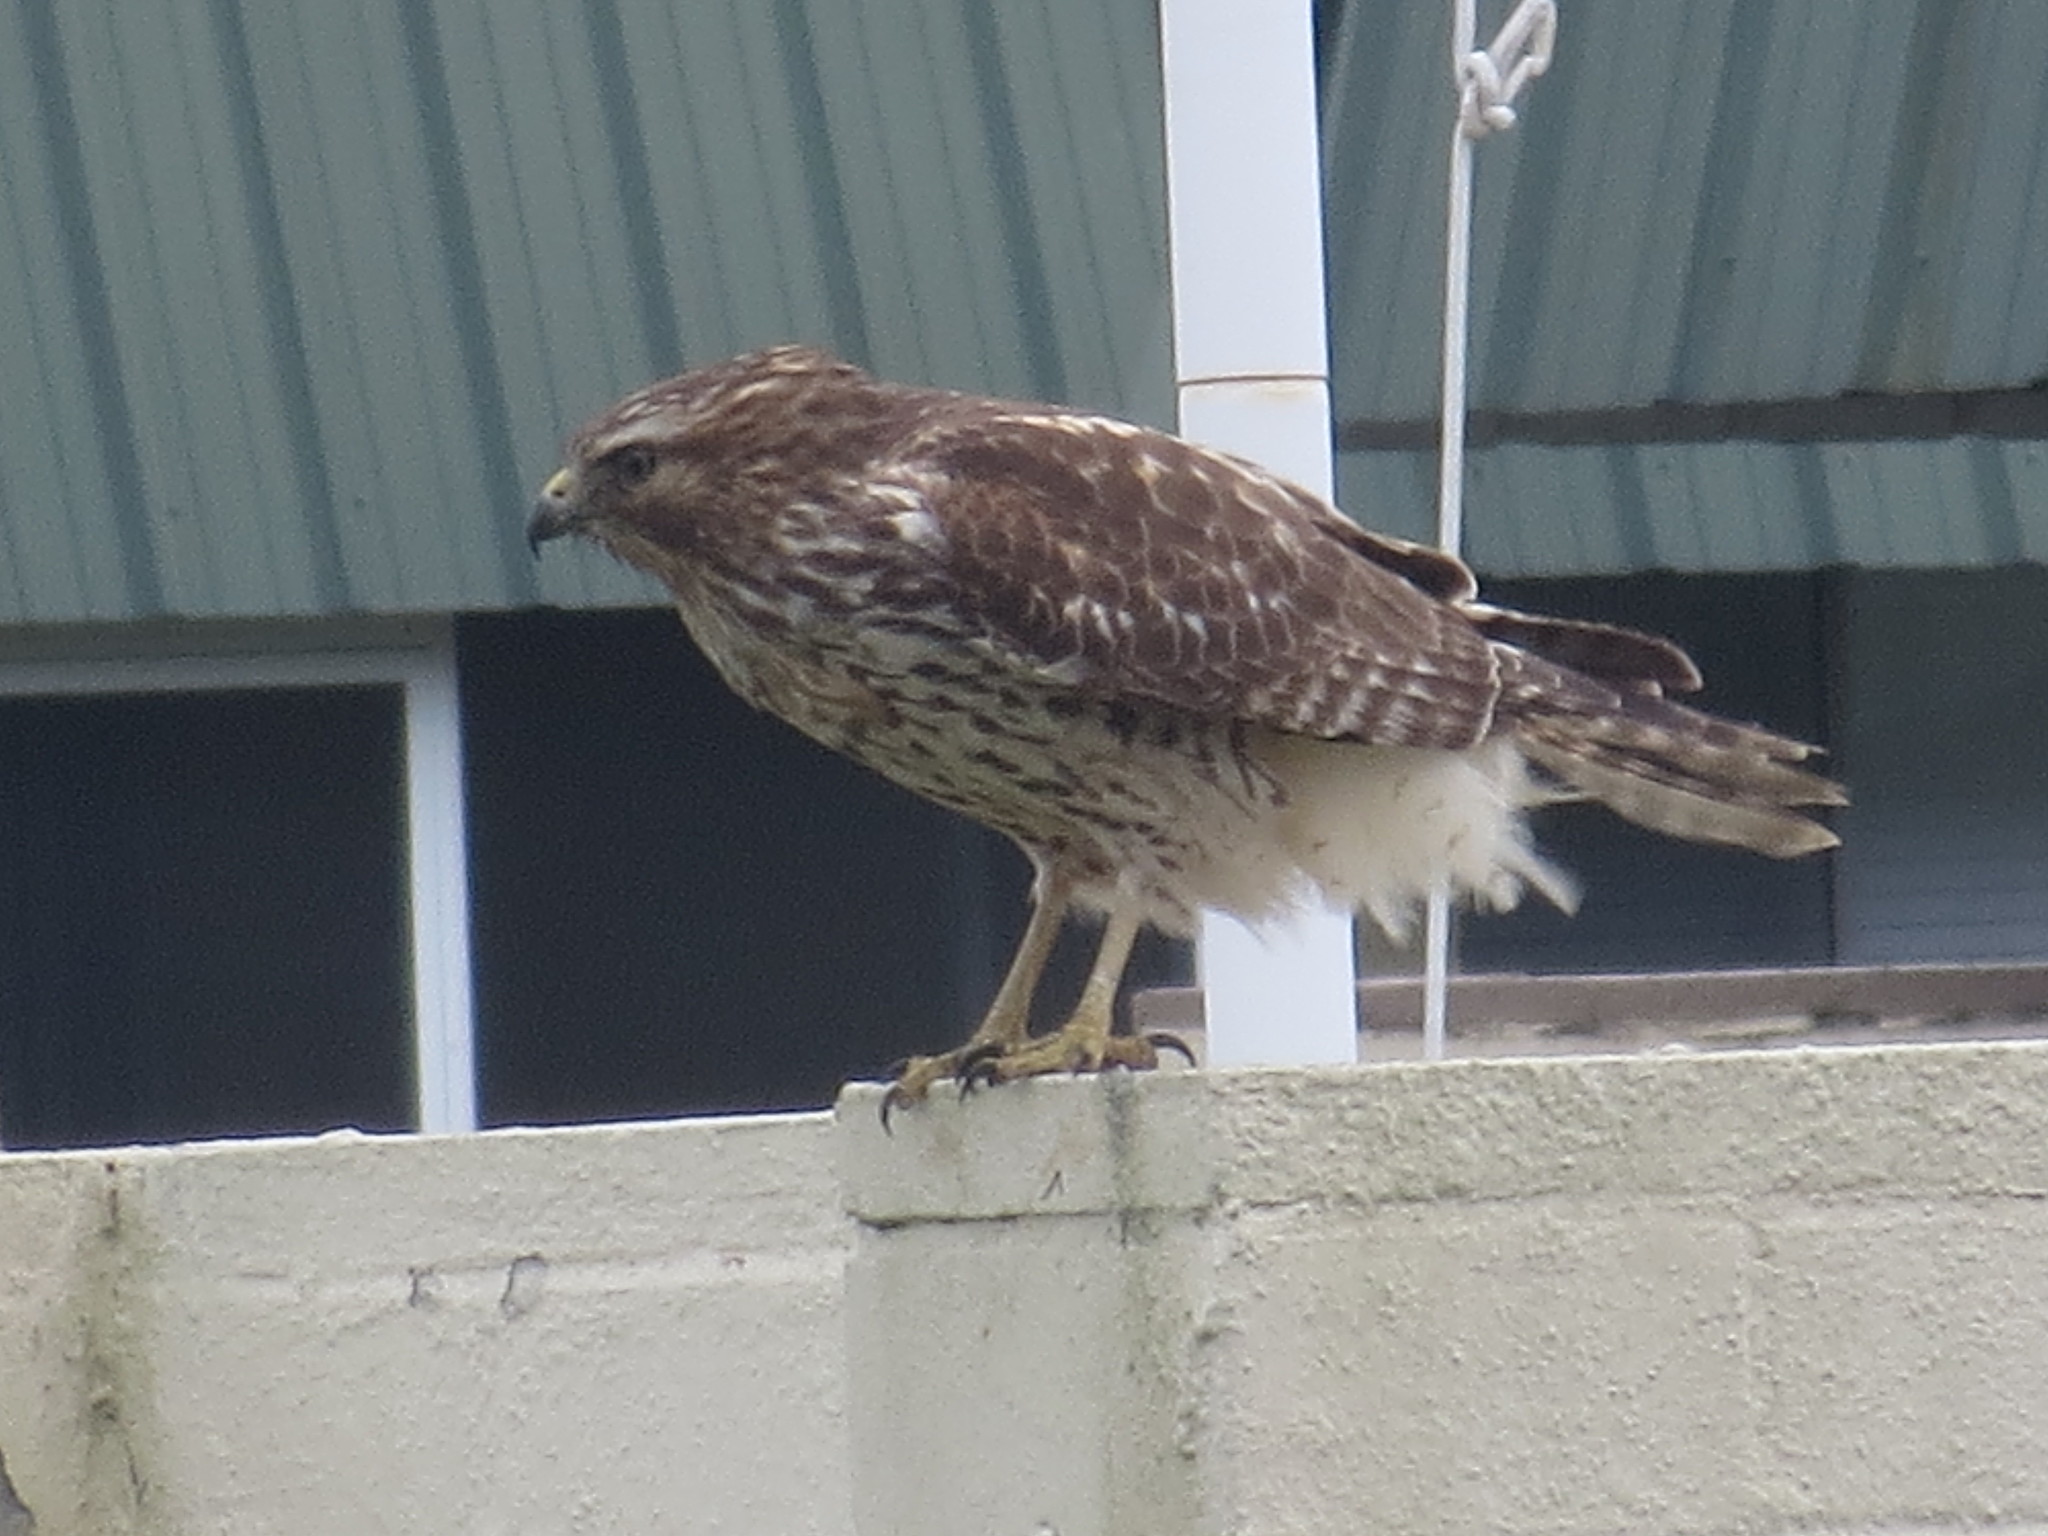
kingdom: Animalia
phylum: Chordata
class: Aves
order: Accipitriformes
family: Accipitridae
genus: Buteo
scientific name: Buteo lineatus
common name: Red-shouldered hawk
